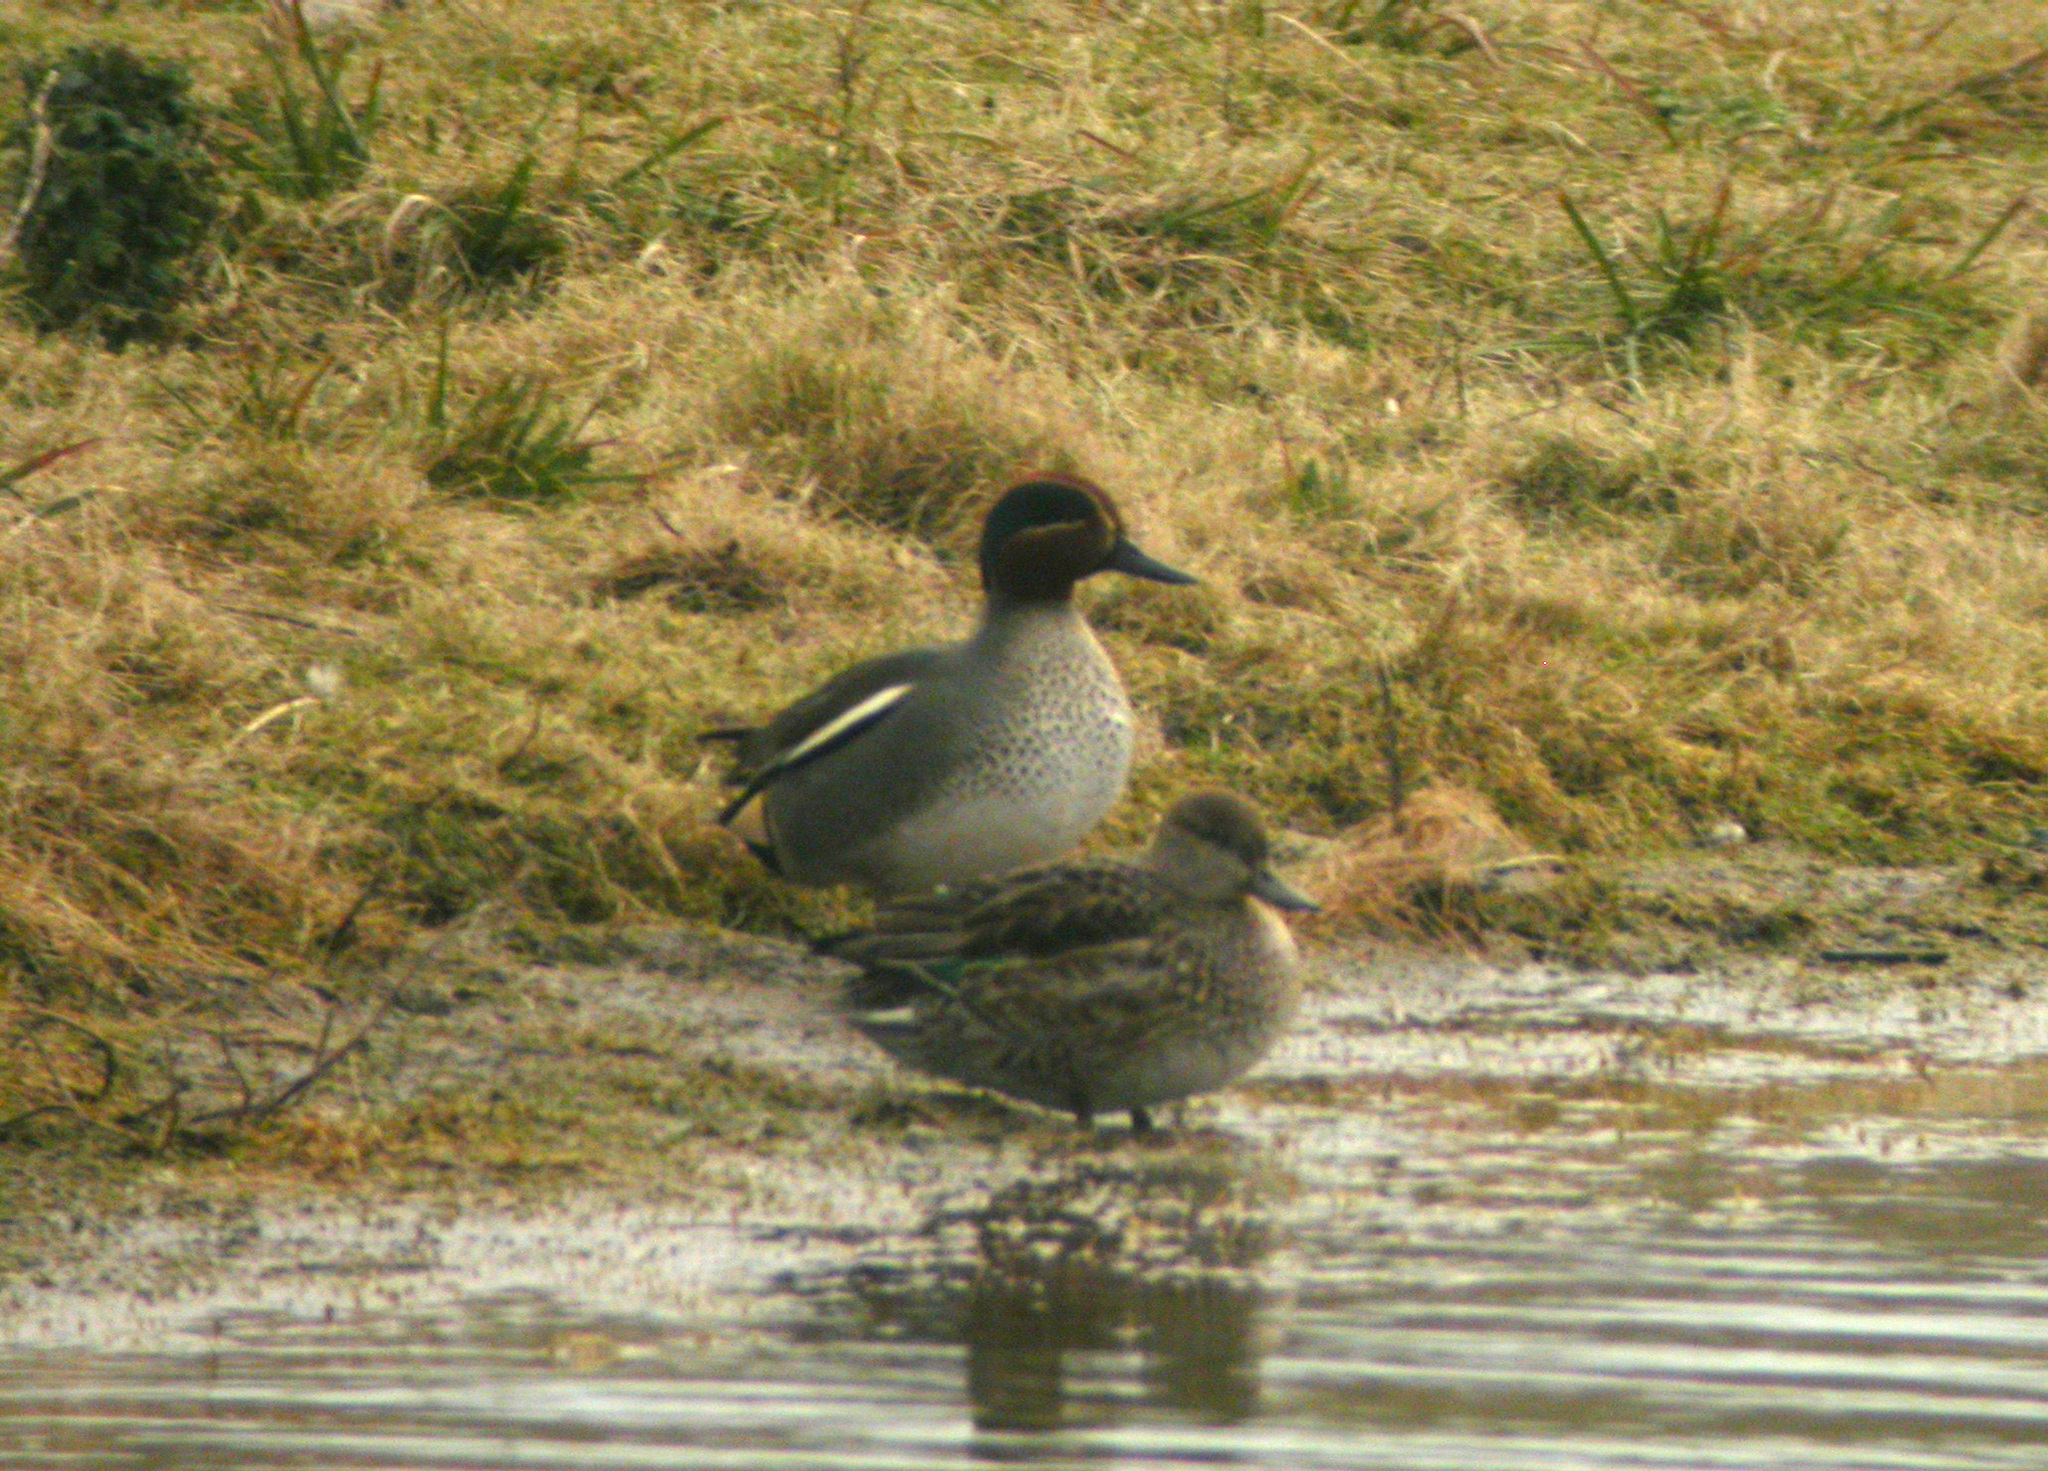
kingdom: Animalia
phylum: Chordata
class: Aves
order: Anseriformes
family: Anatidae
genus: Anas
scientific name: Anas crecca
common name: Eurasian teal
